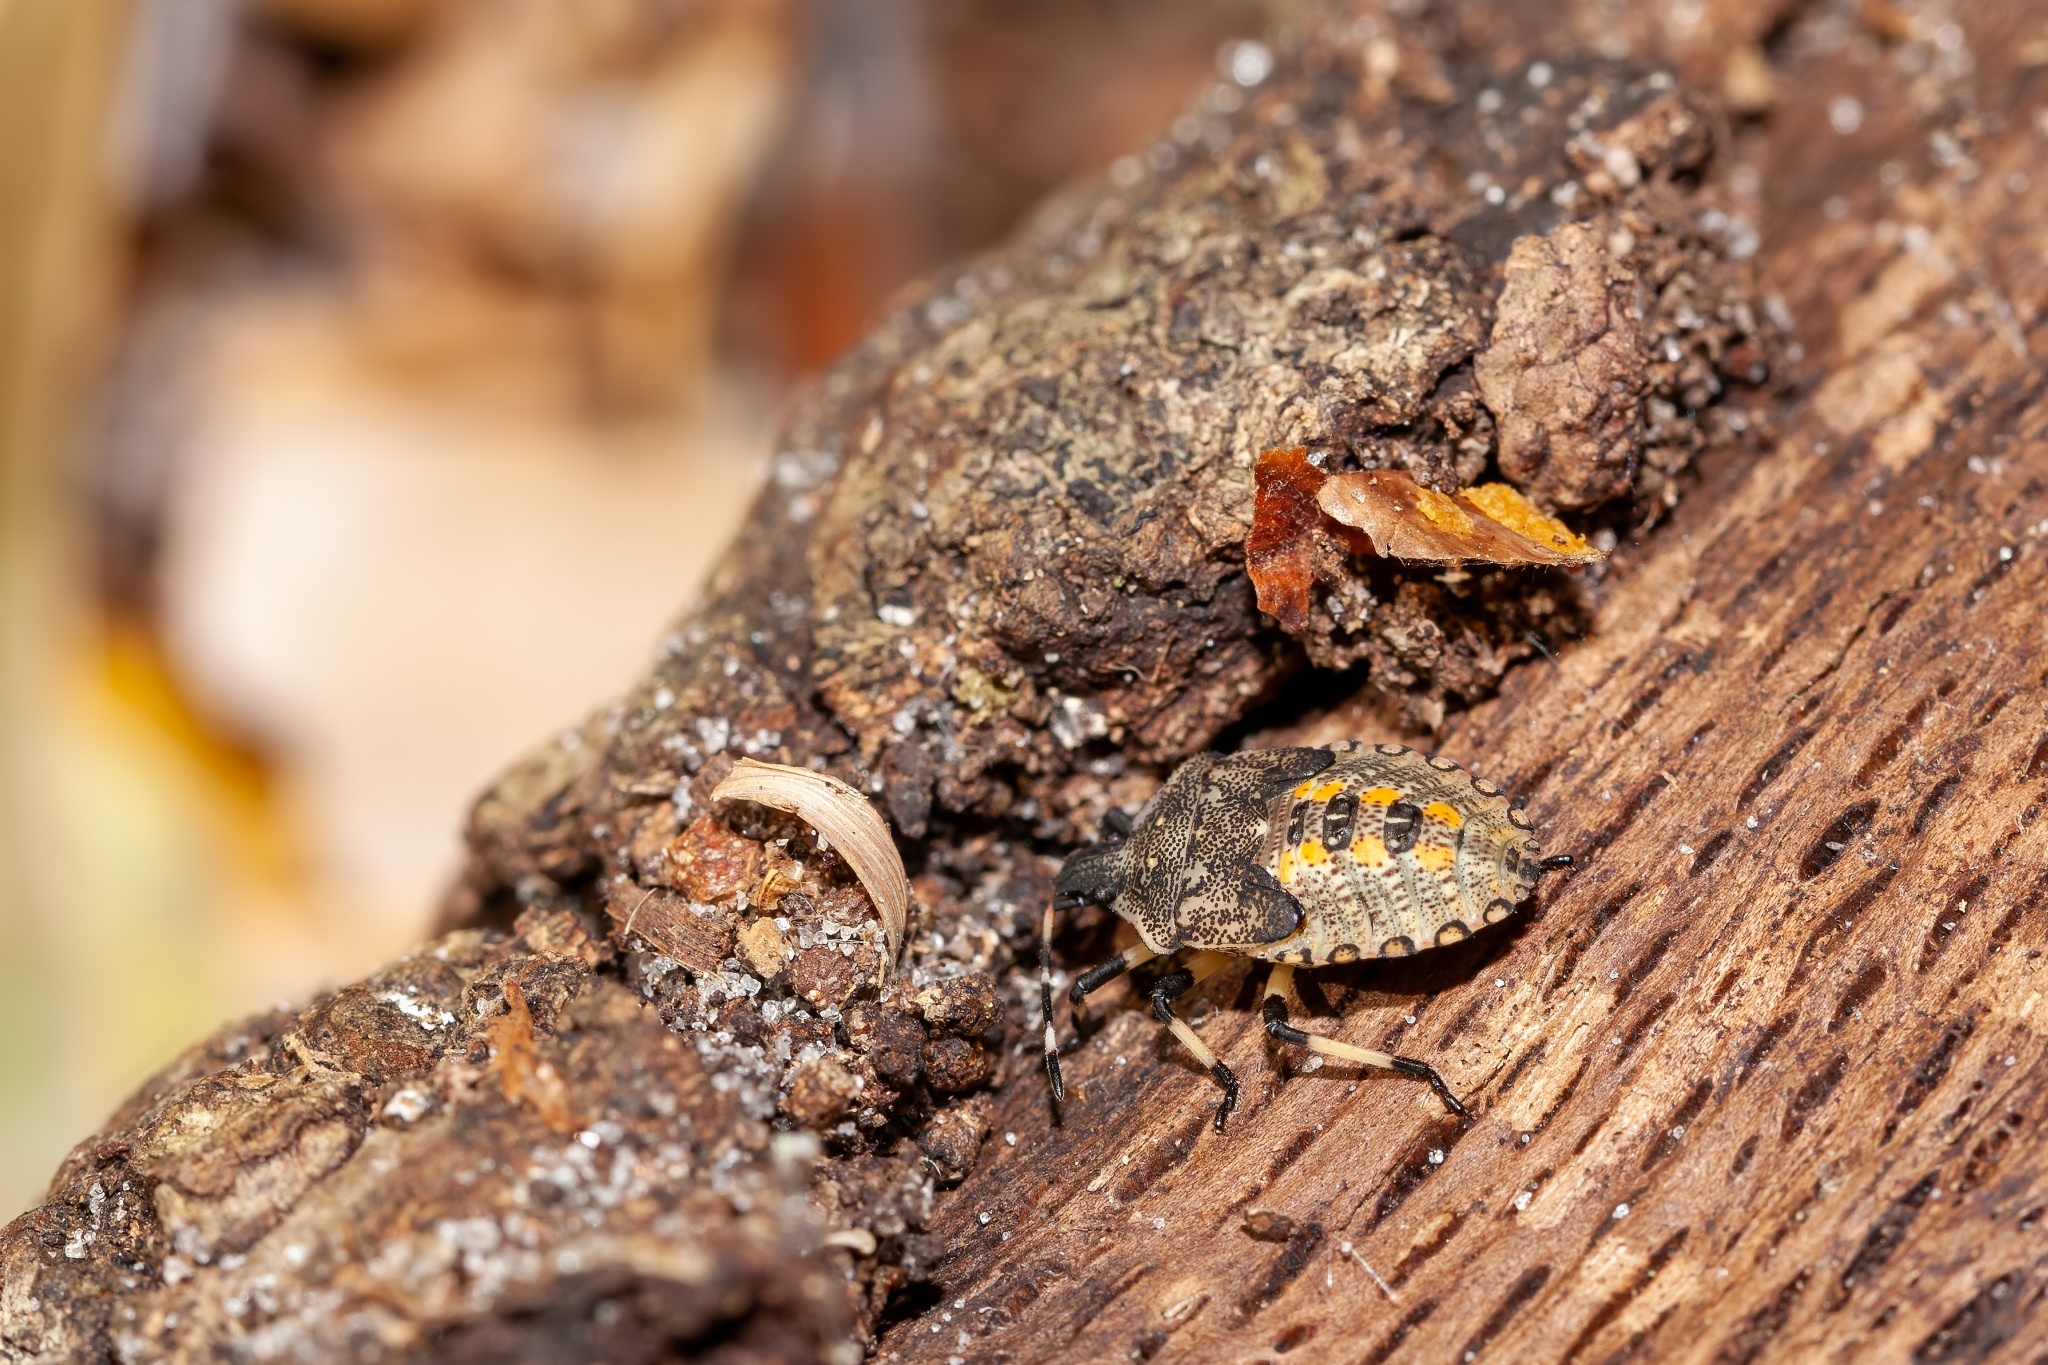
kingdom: Animalia
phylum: Arthropoda
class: Insecta
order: Hemiptera
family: Pentatomidae
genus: Proxys
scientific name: Proxys punctulatus
